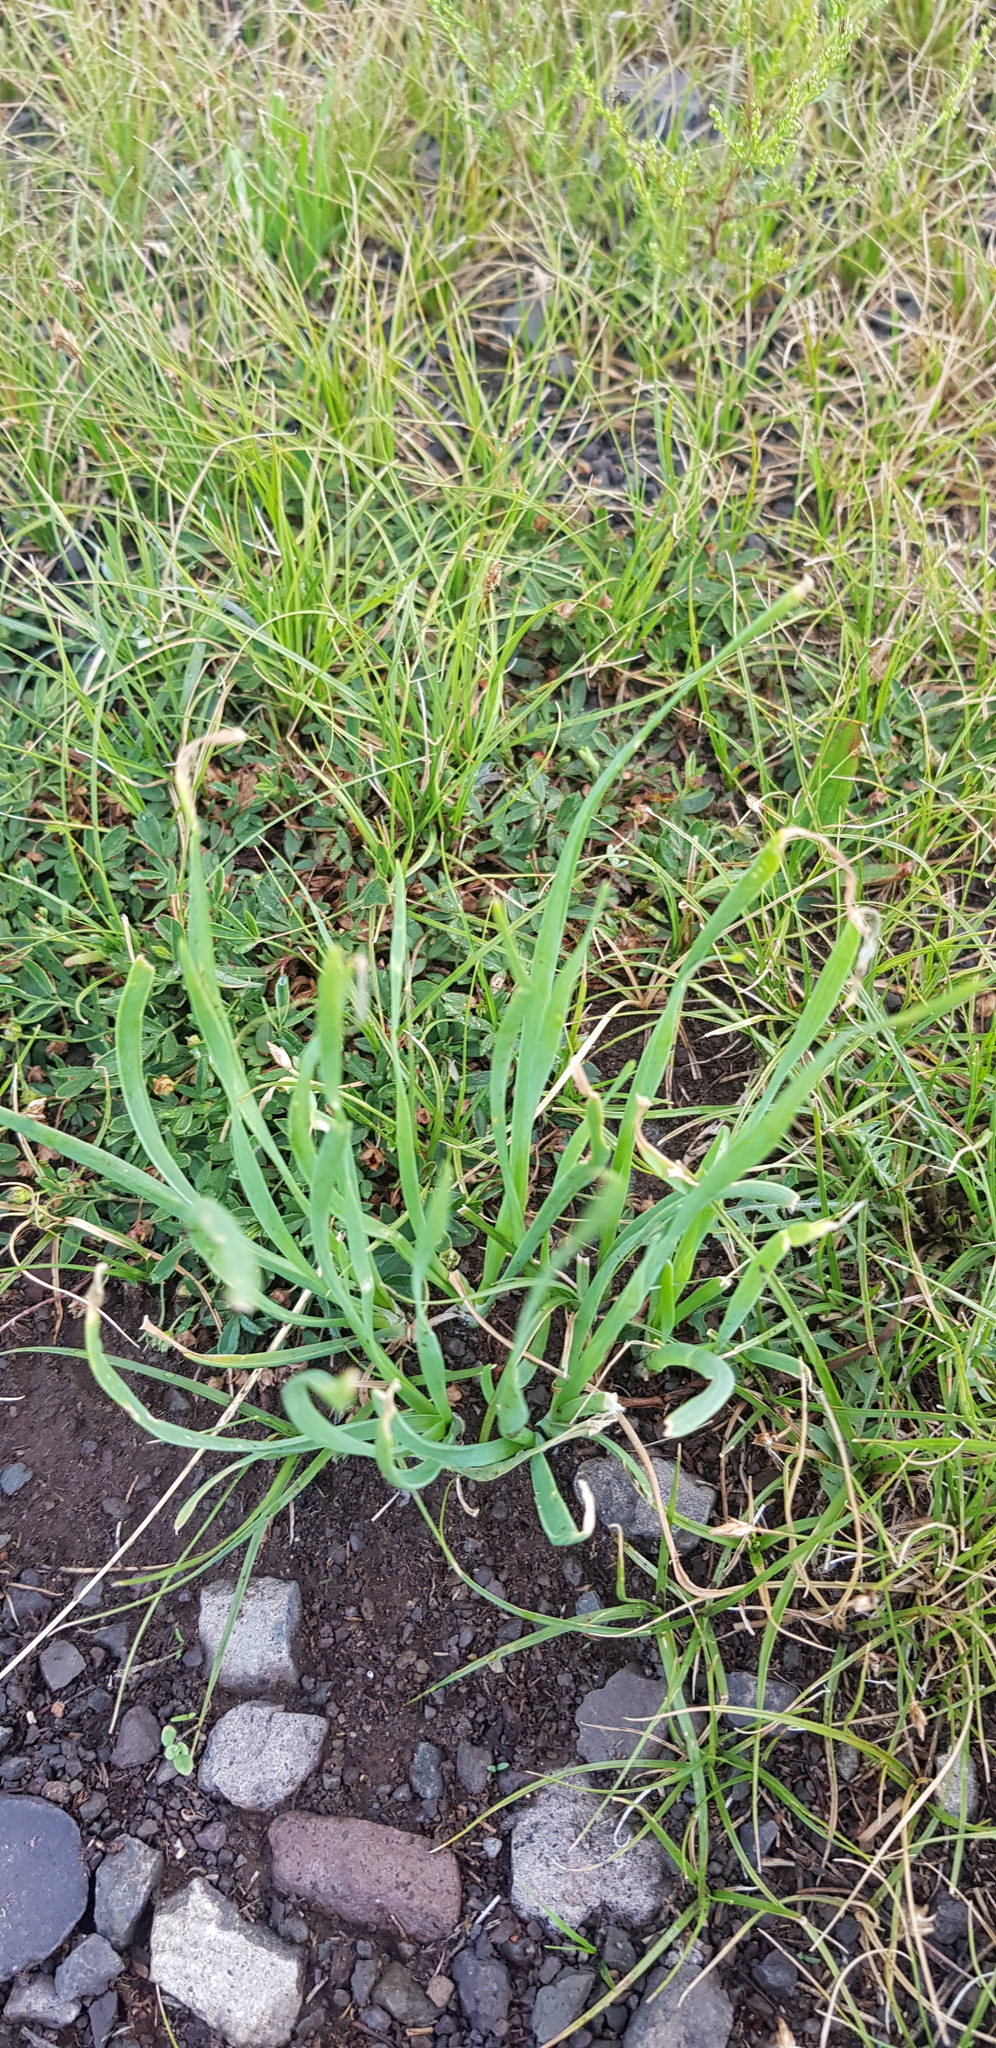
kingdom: Plantae
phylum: Tracheophyta
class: Liliopsida
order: Asparagales
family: Amaryllidaceae
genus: Allium
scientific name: Allium senescens
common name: German garlic
